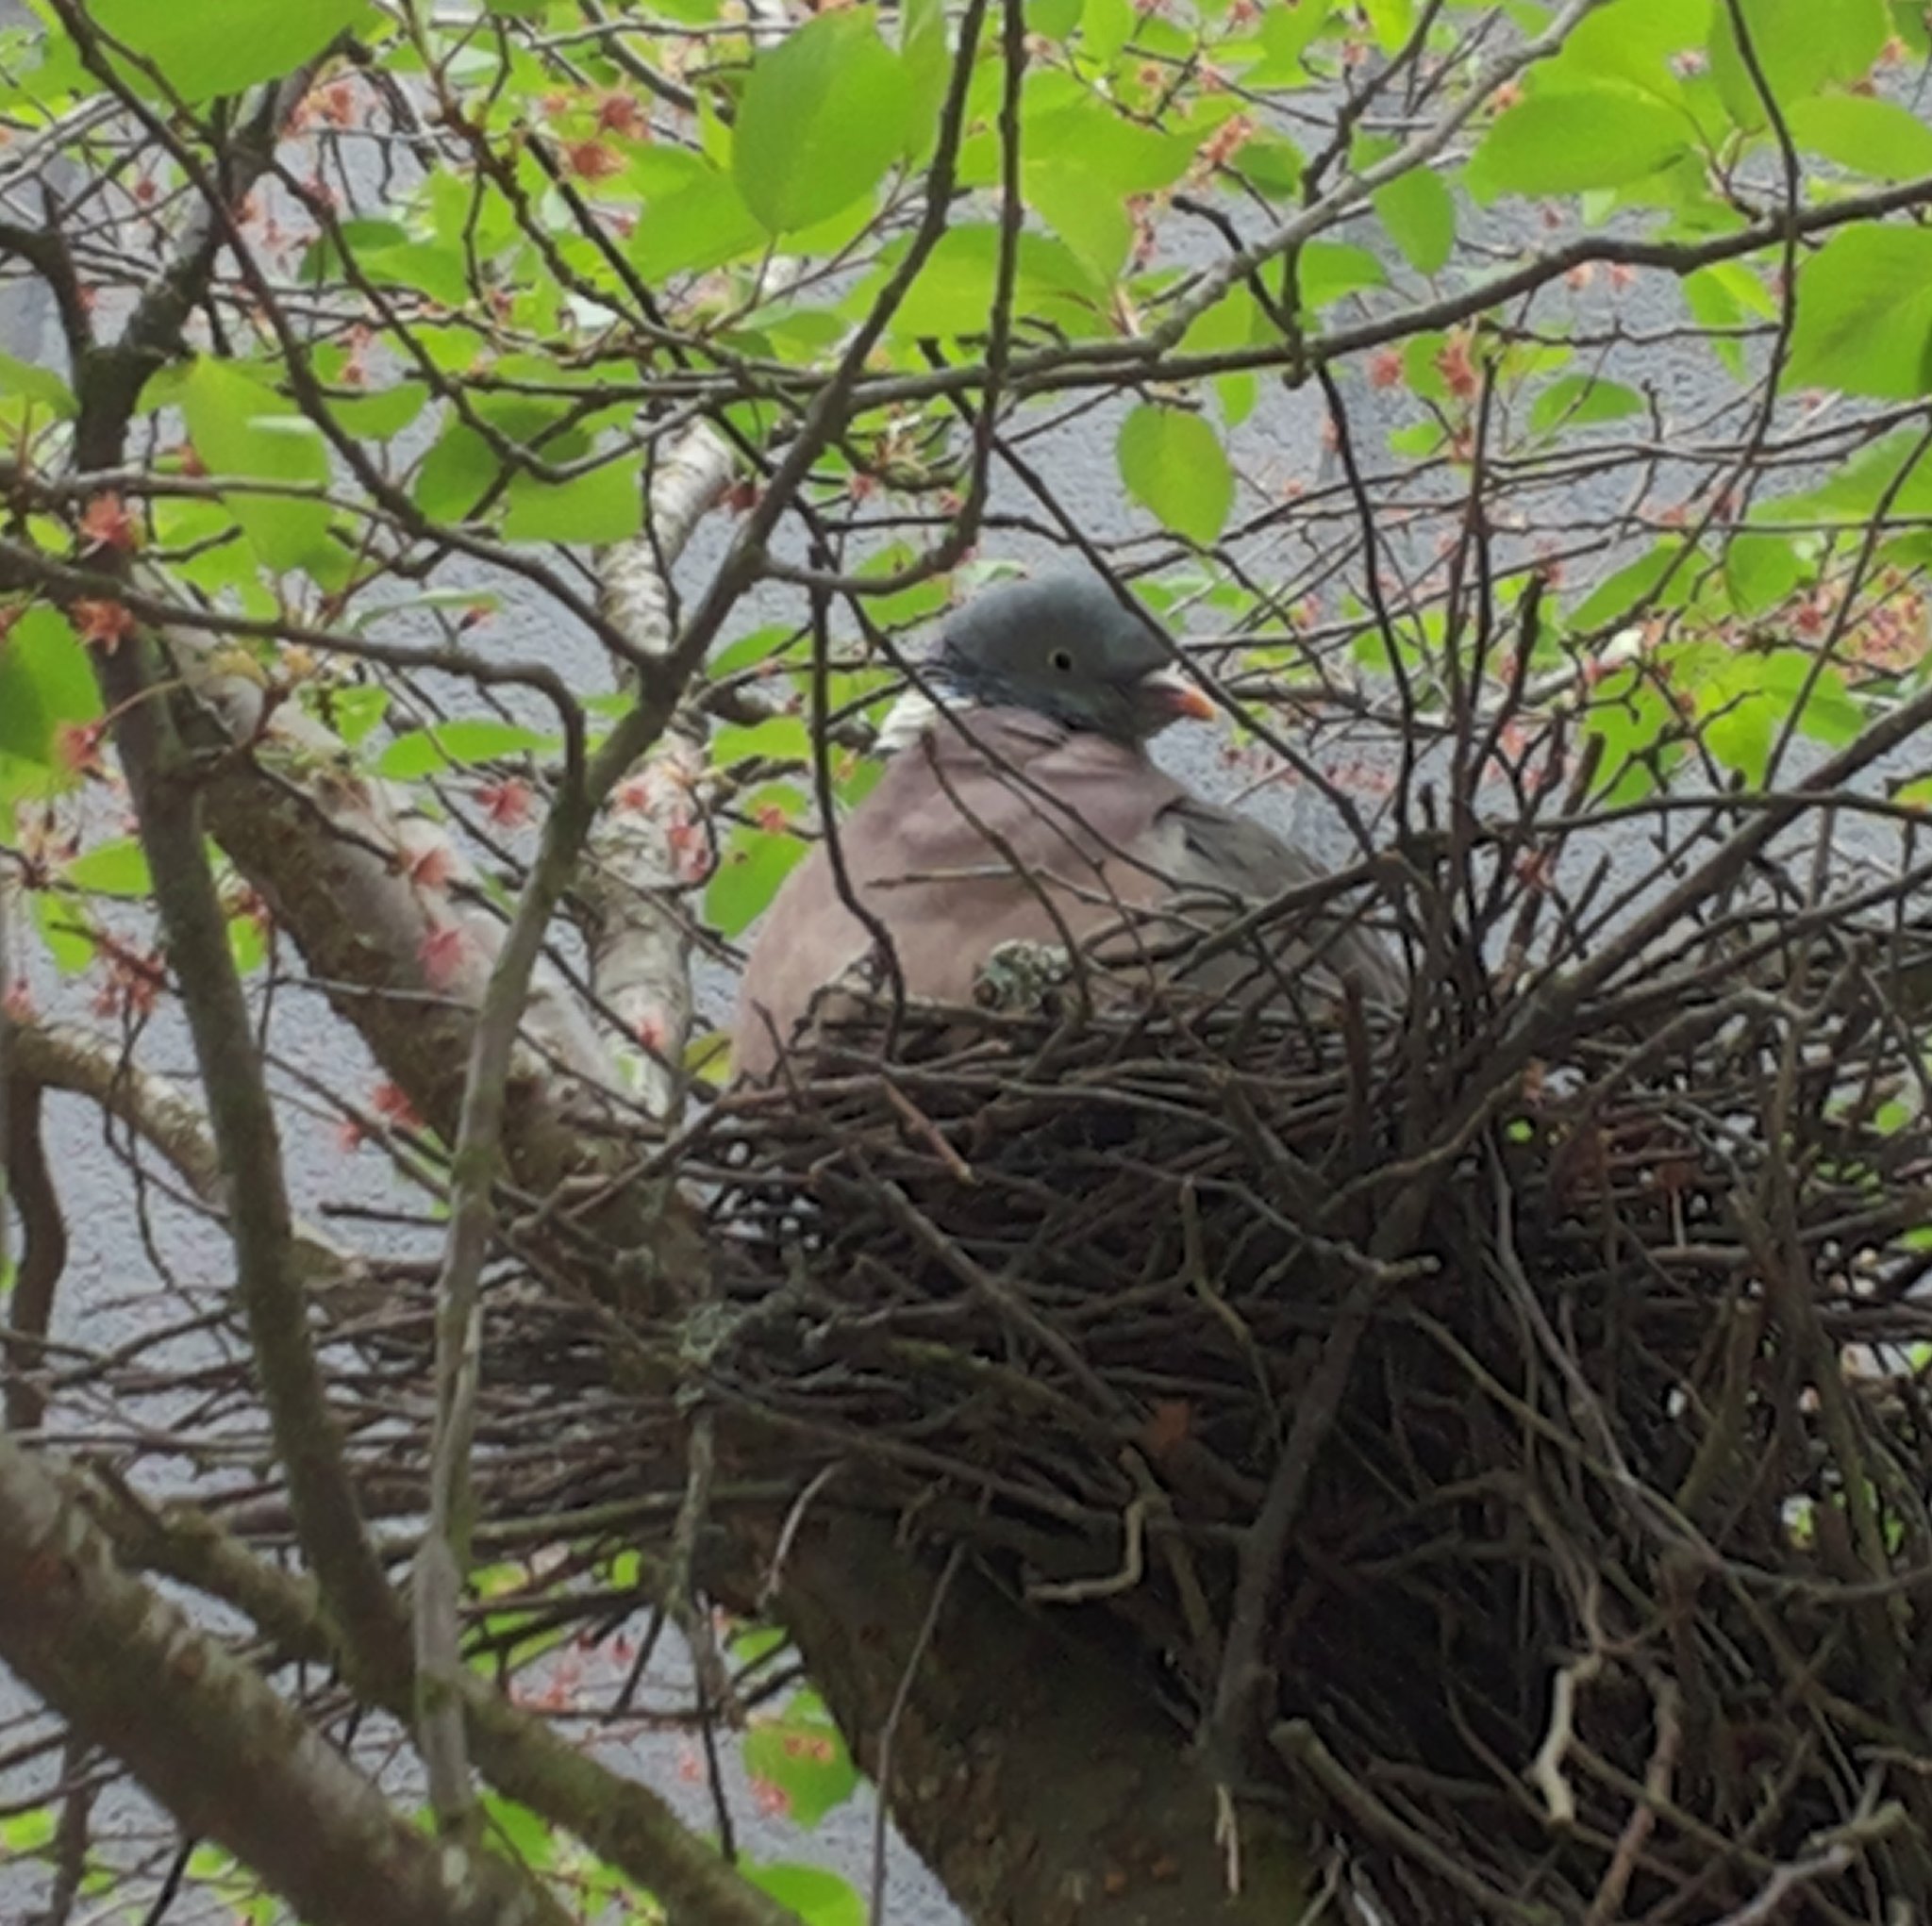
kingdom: Animalia
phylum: Chordata
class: Aves
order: Columbiformes
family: Columbidae
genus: Columba
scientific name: Columba palumbus
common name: Common wood pigeon
